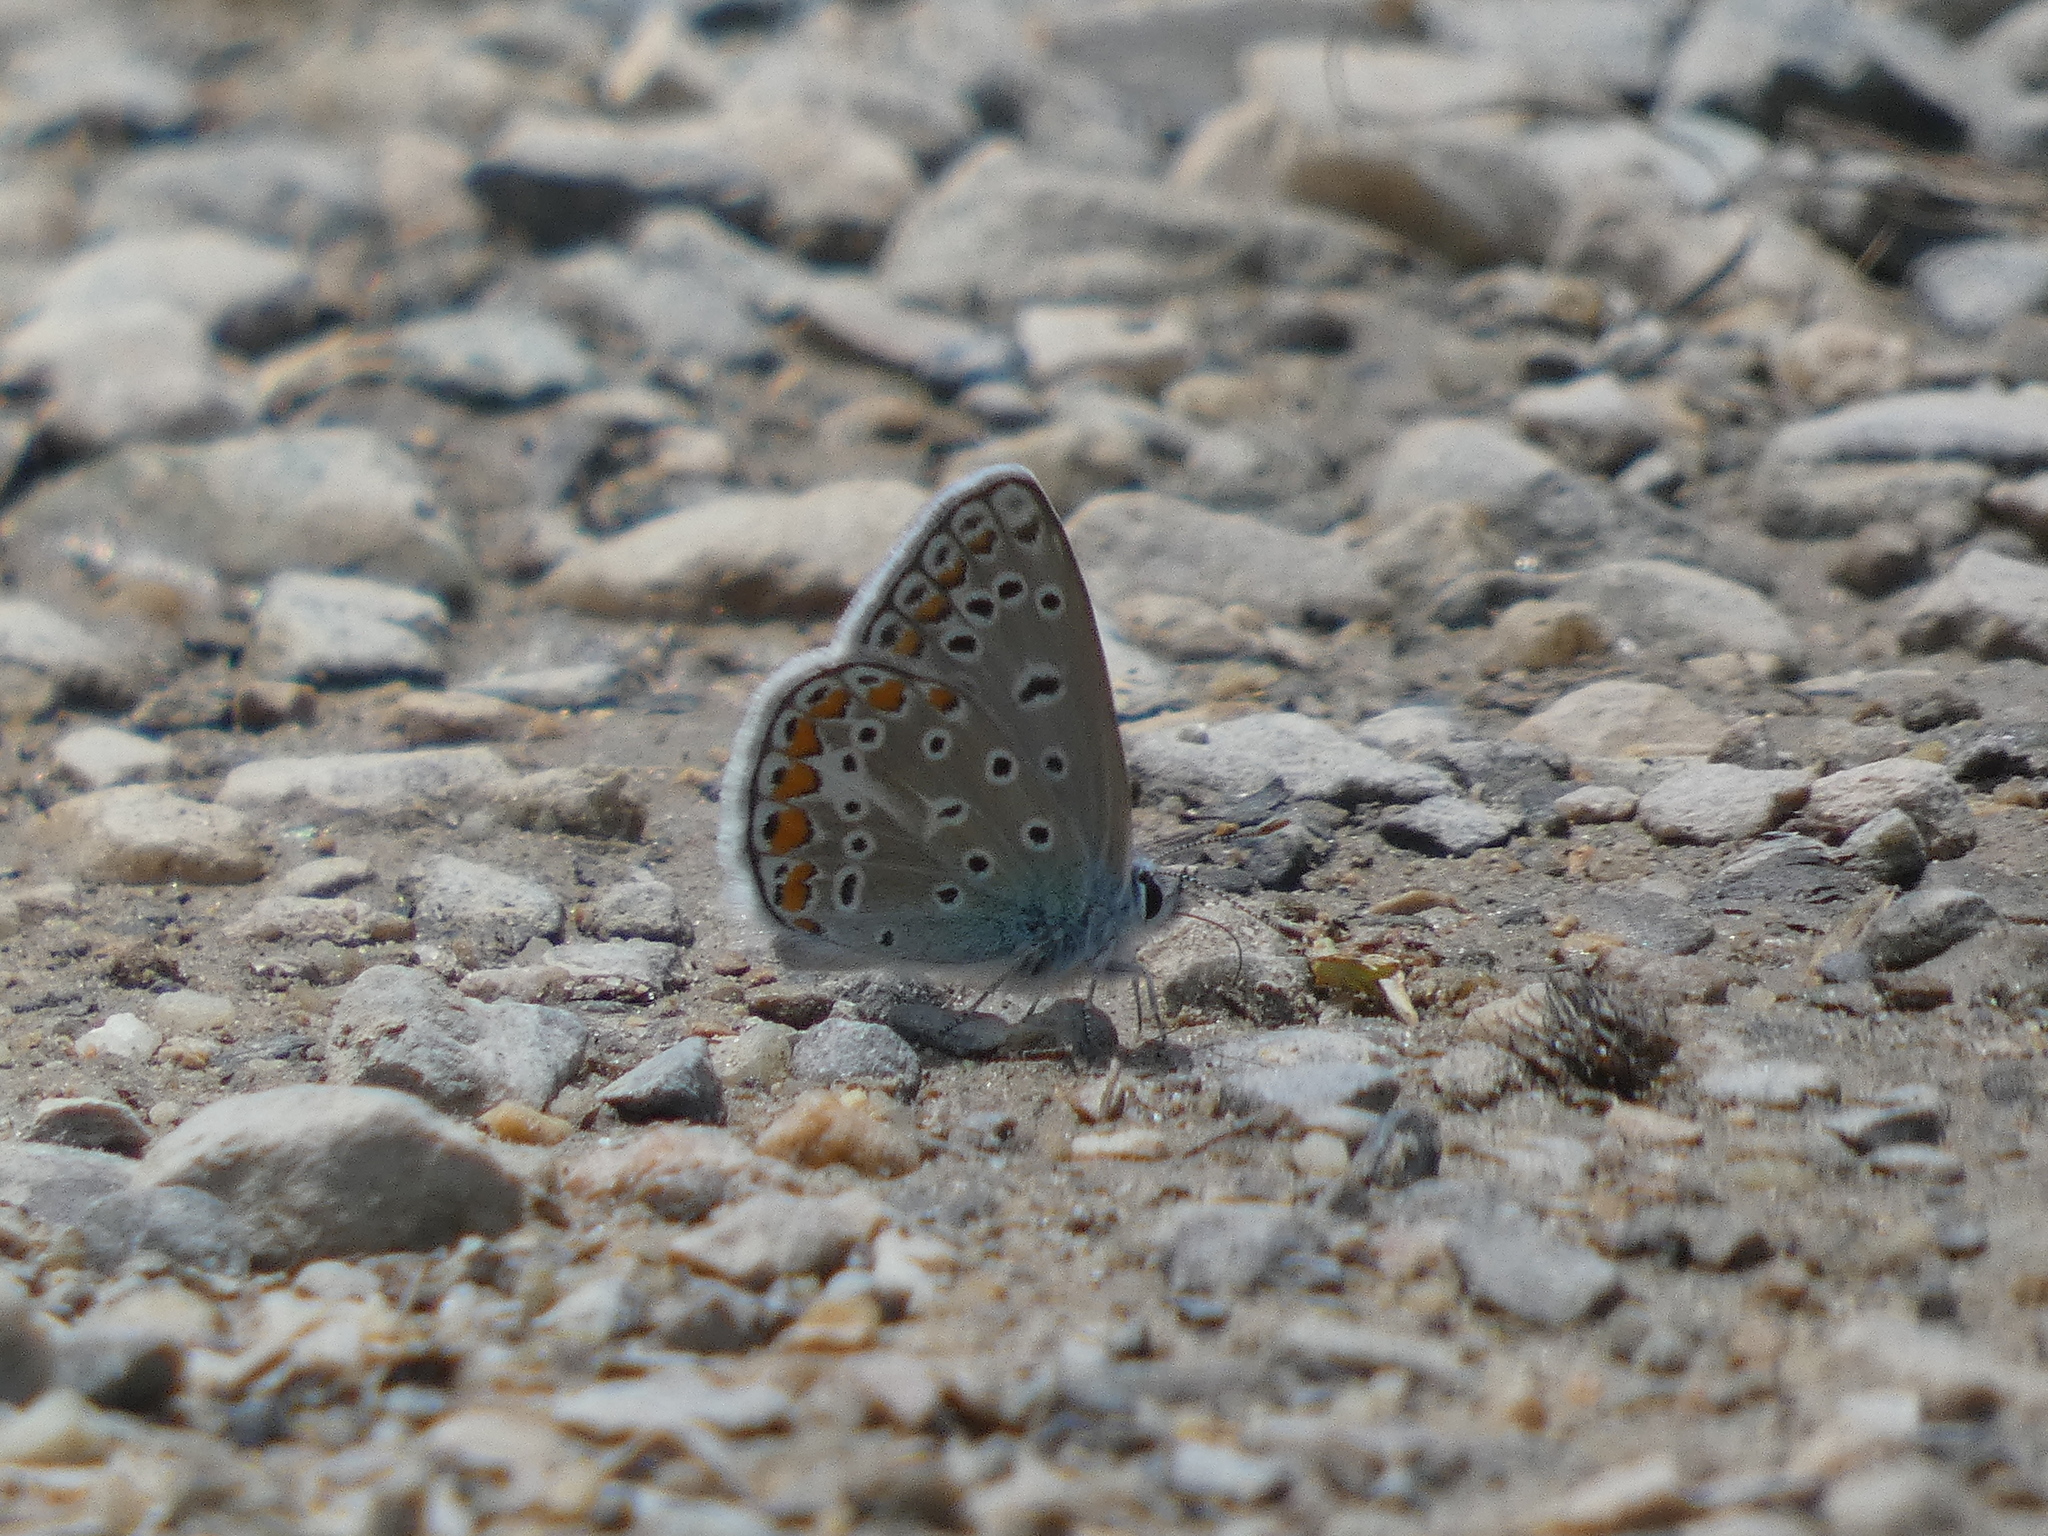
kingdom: Animalia
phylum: Arthropoda
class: Insecta
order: Lepidoptera
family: Lycaenidae
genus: Polyommatus
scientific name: Polyommatus icarus
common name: Common blue
